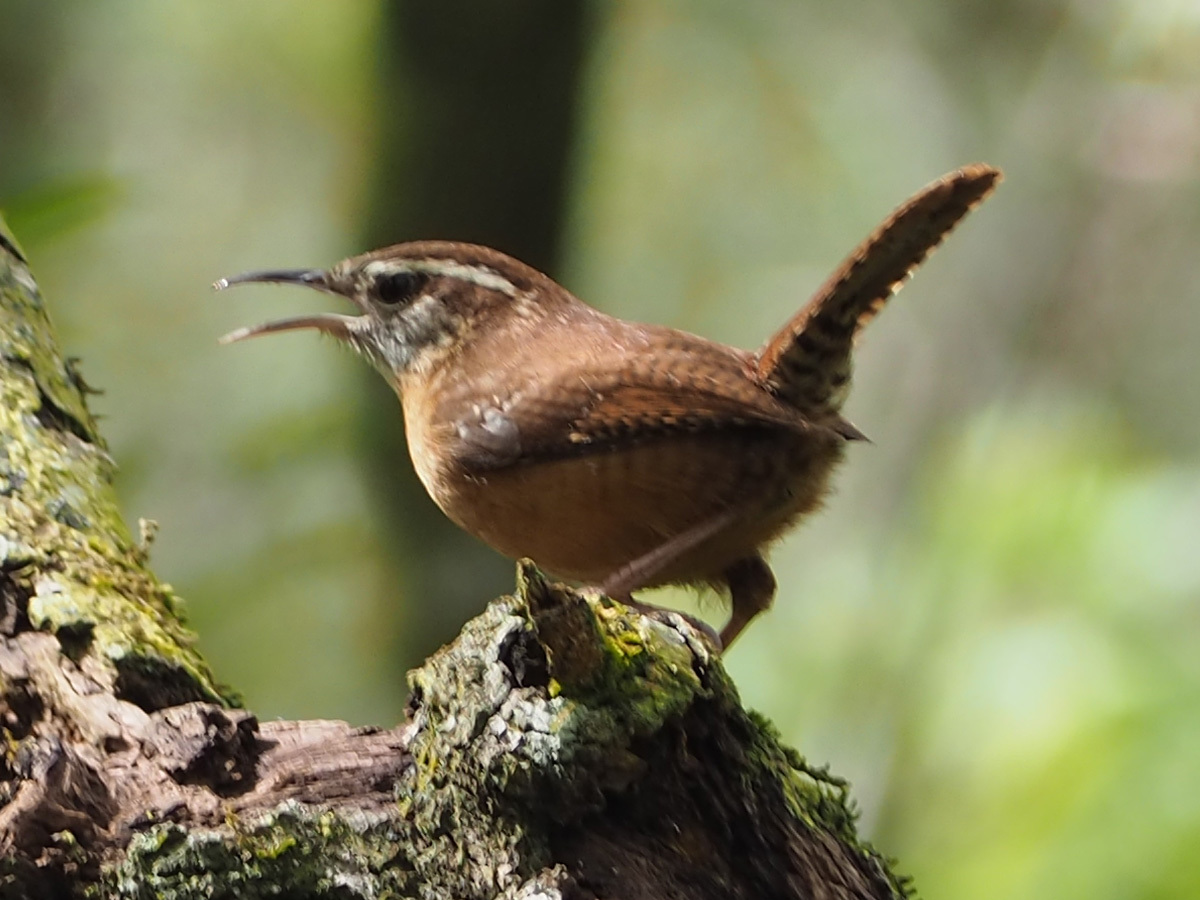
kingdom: Animalia
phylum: Chordata
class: Aves
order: Passeriformes
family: Troglodytidae
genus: Thryothorus
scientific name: Thryothorus ludovicianus
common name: Carolina wren
